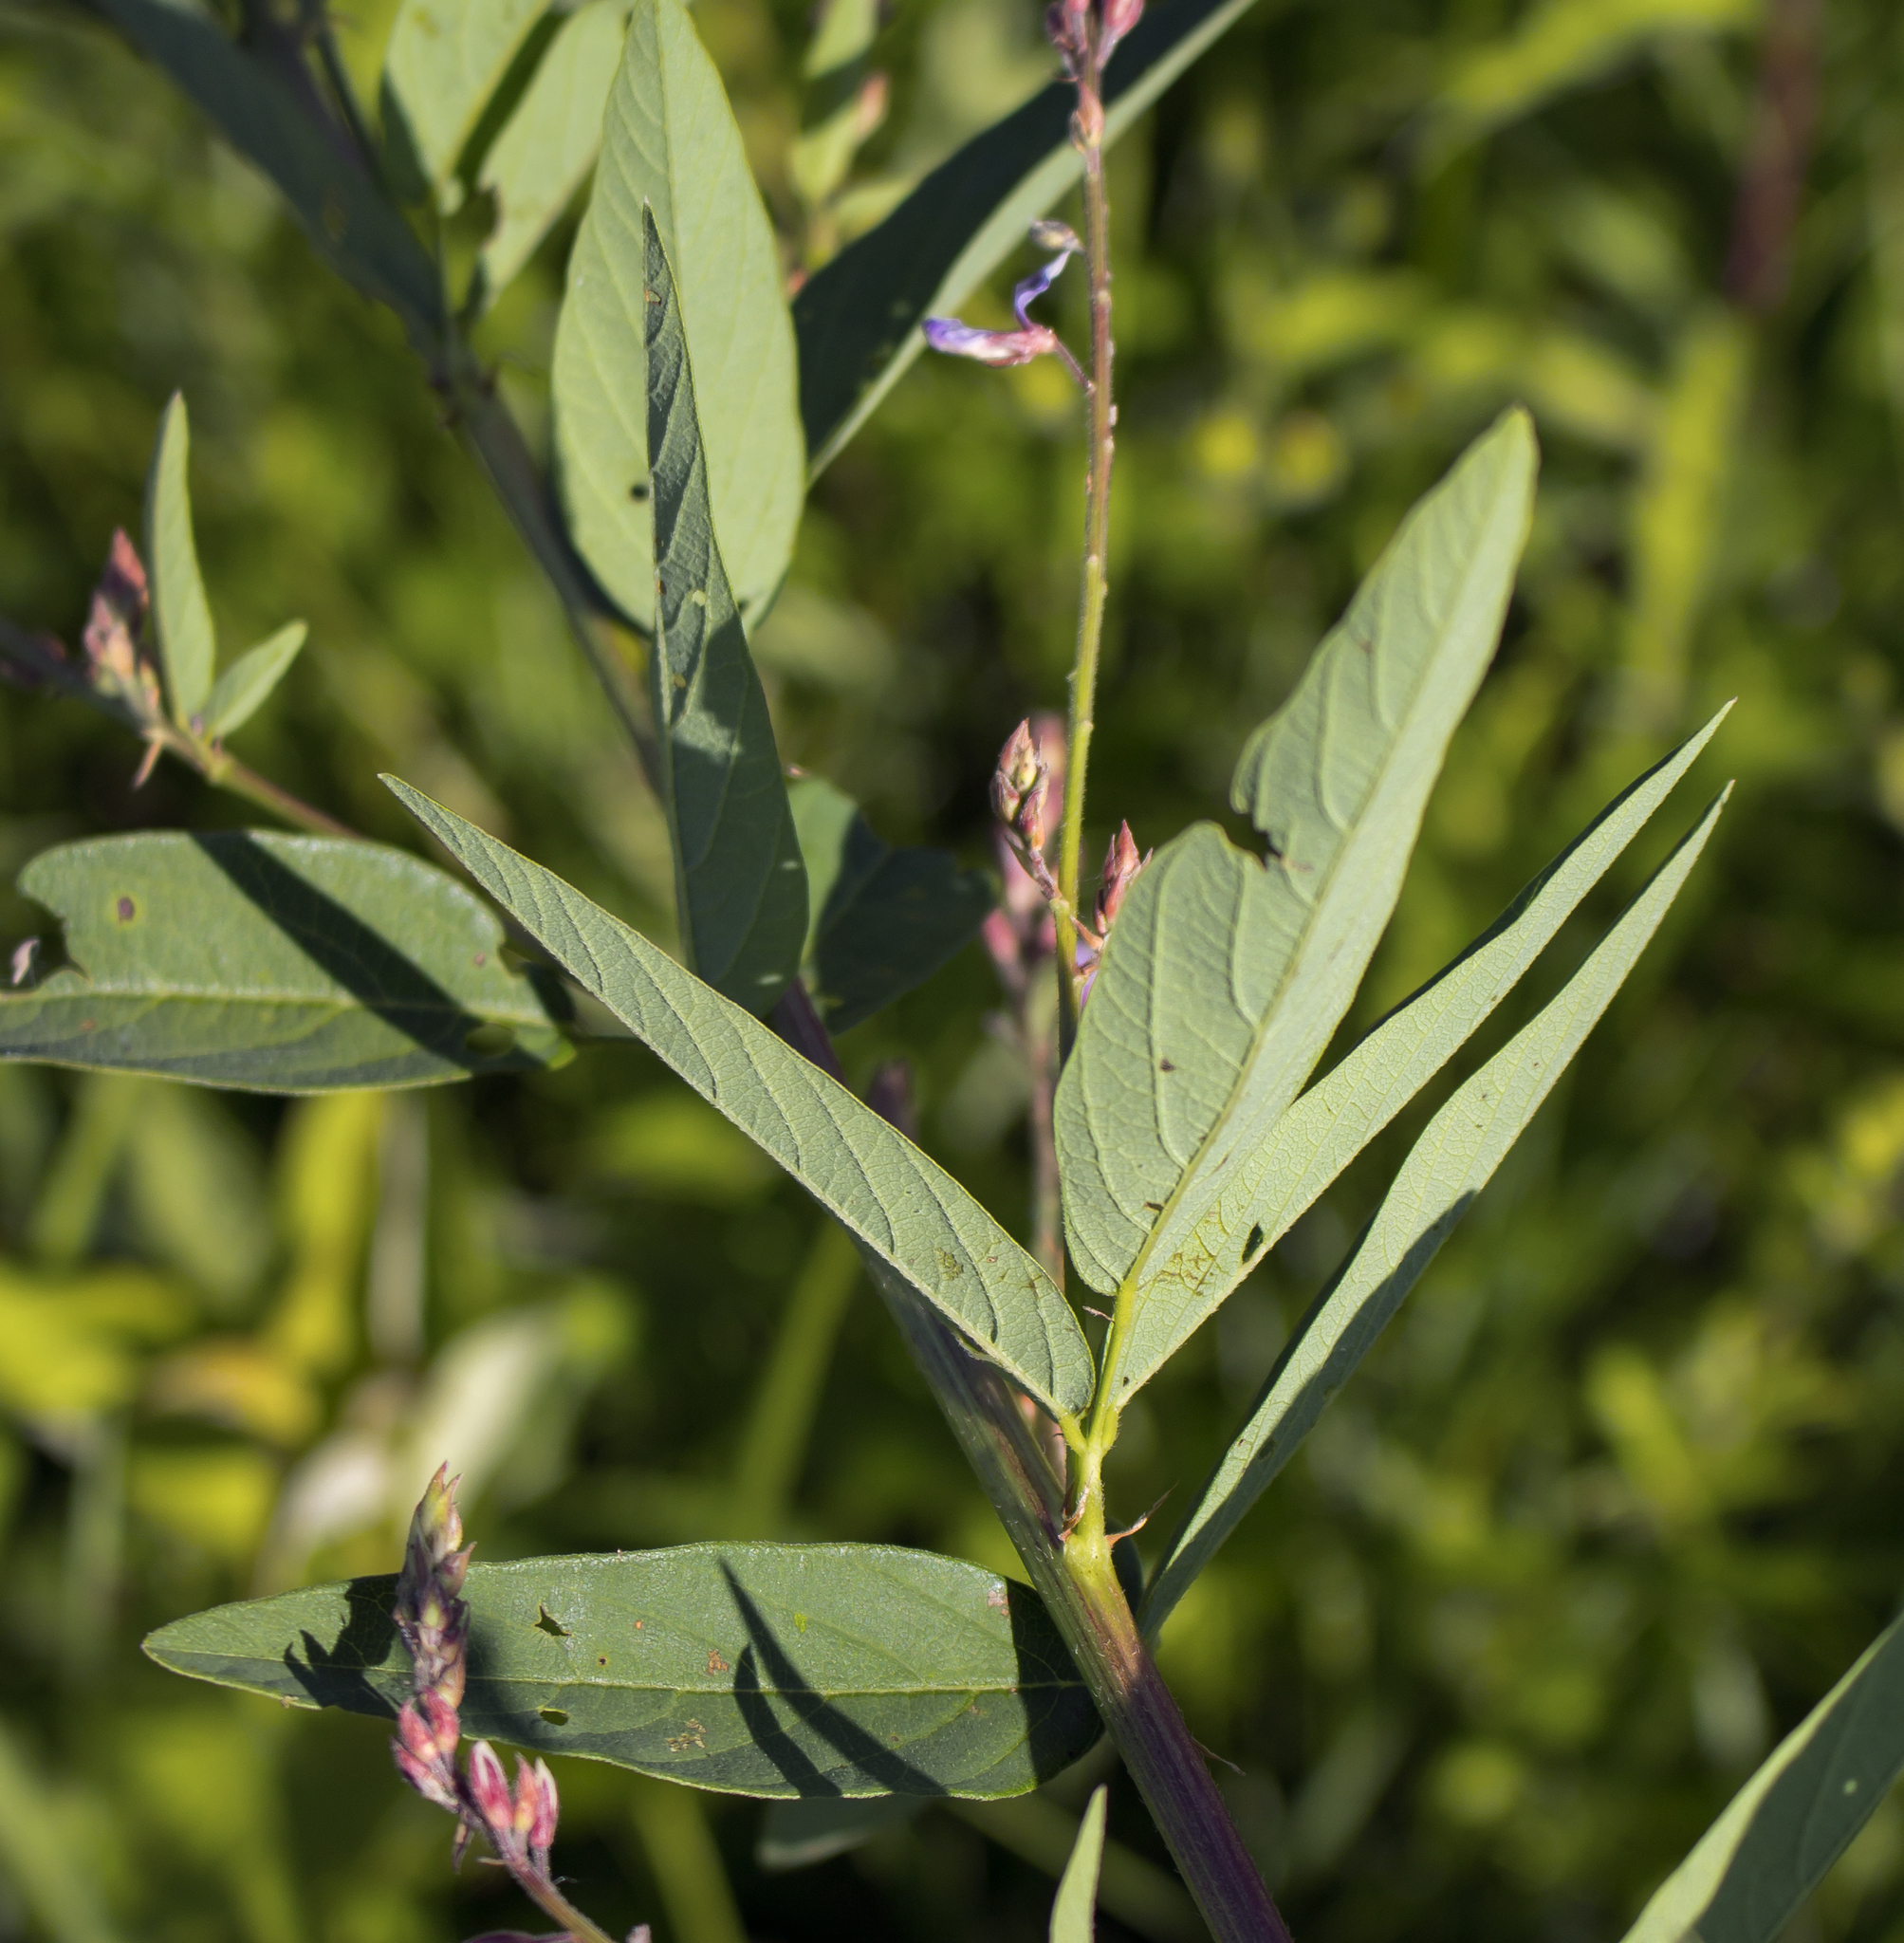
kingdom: Plantae
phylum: Tracheophyta
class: Magnoliopsida
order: Fabales
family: Fabaceae
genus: Desmodium
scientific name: Desmodium canadense
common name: Canada tick-trefoil
